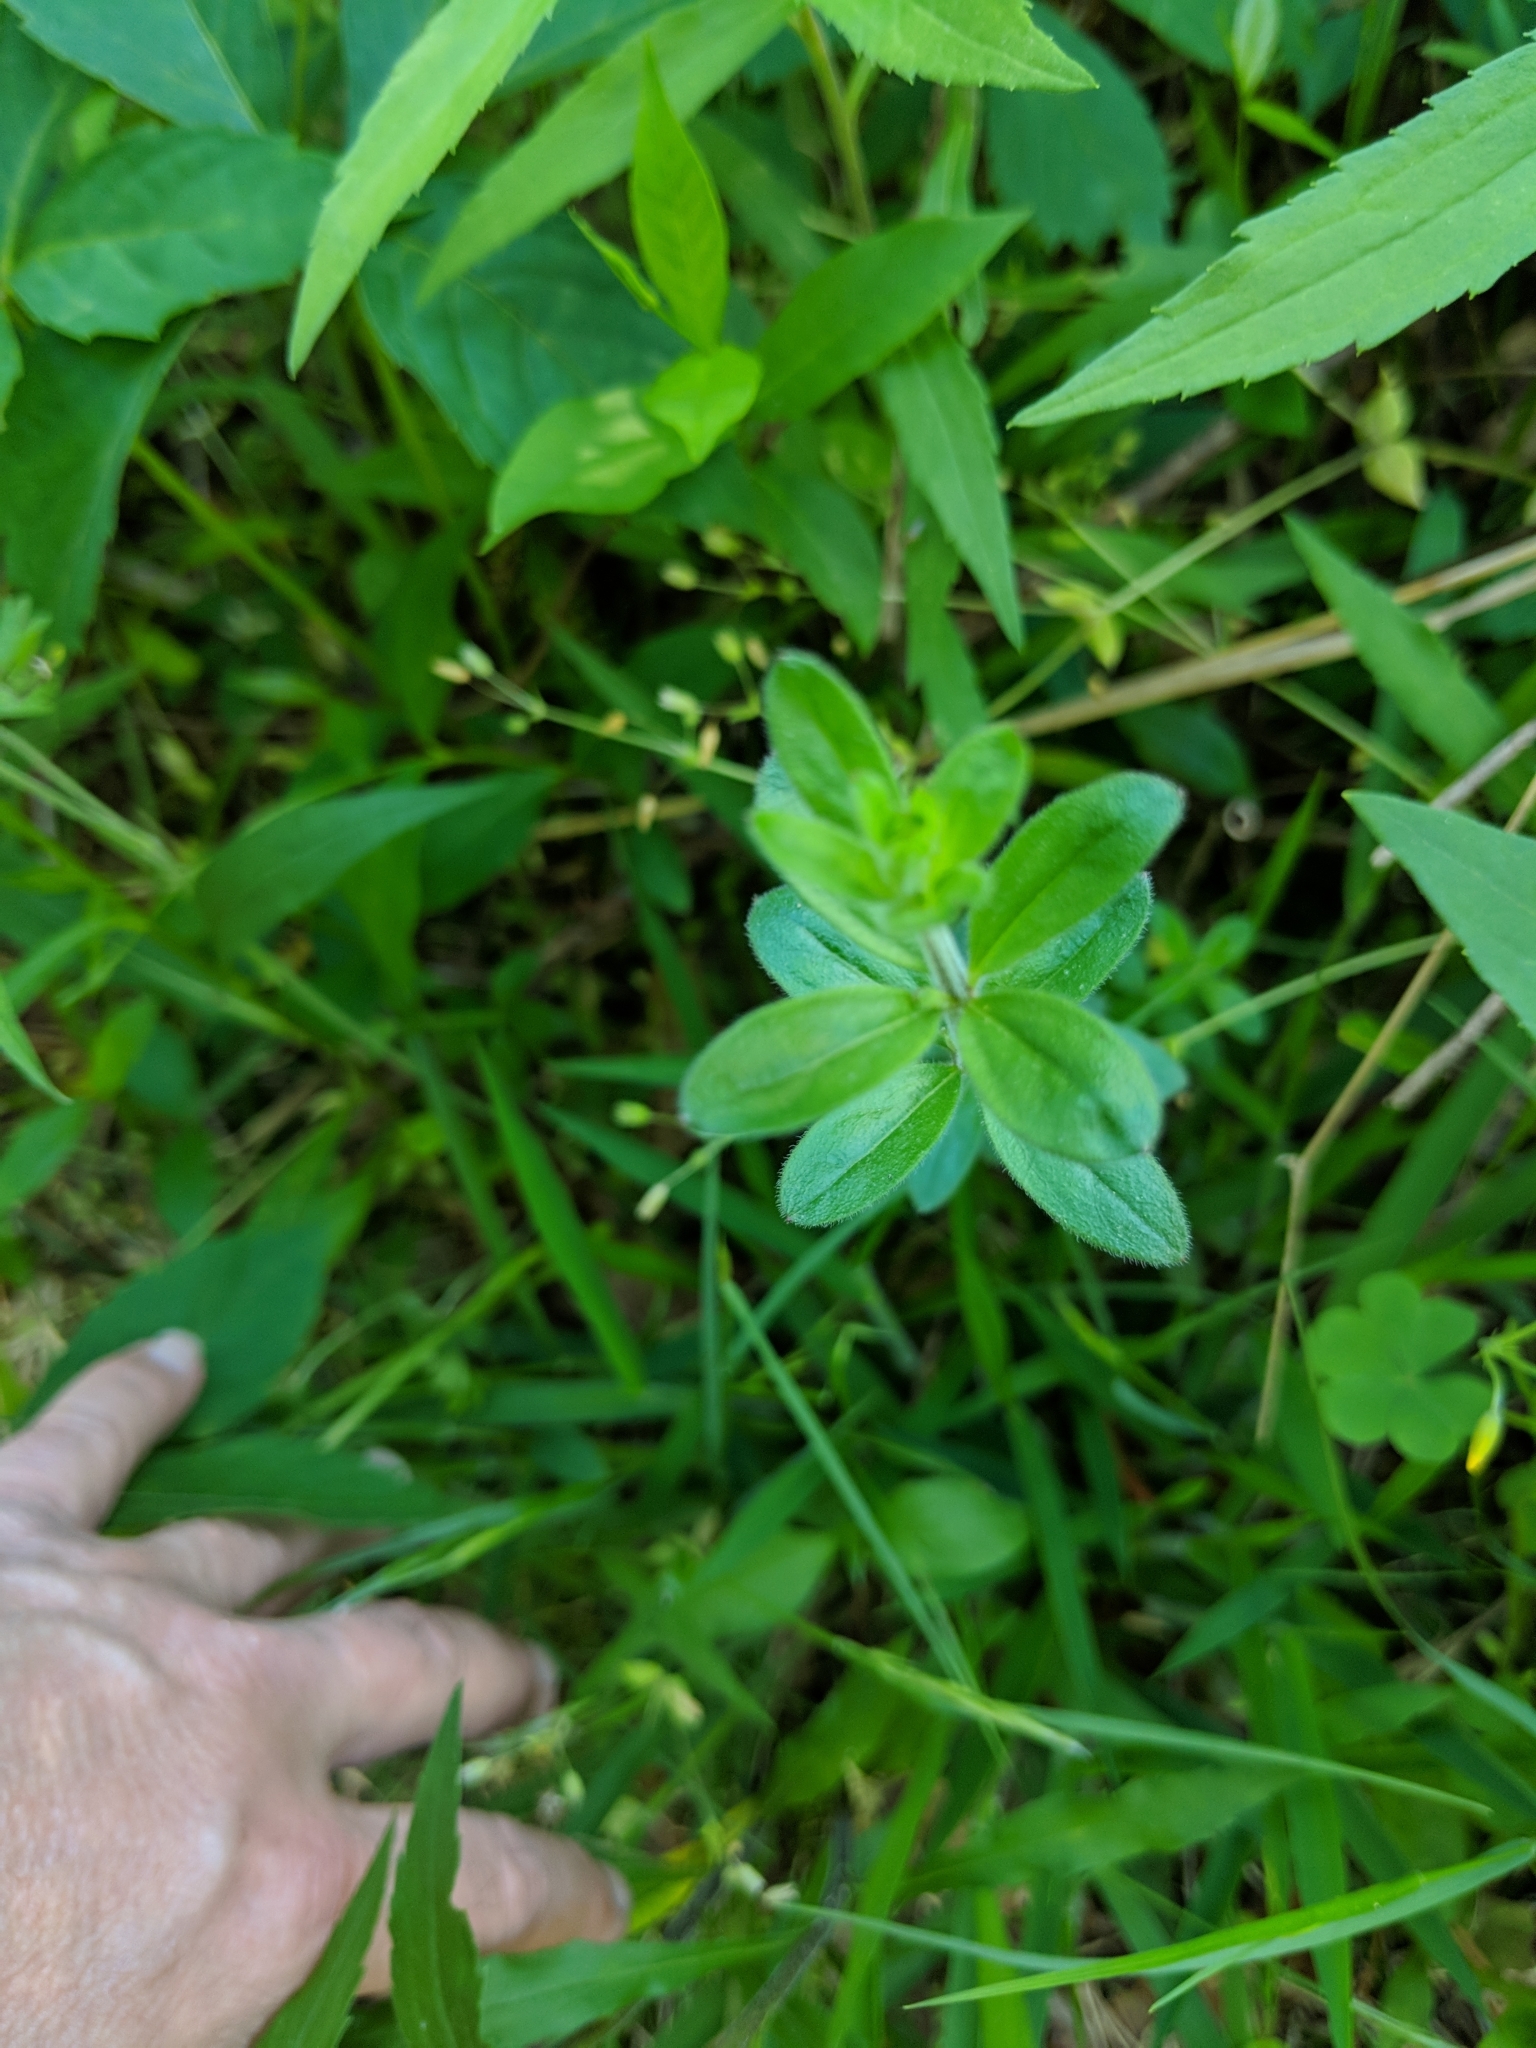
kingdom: Plantae
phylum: Tracheophyta
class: Magnoliopsida
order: Gentianales
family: Rubiaceae
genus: Galium
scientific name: Galium circaezans
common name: Forest bedstraw
